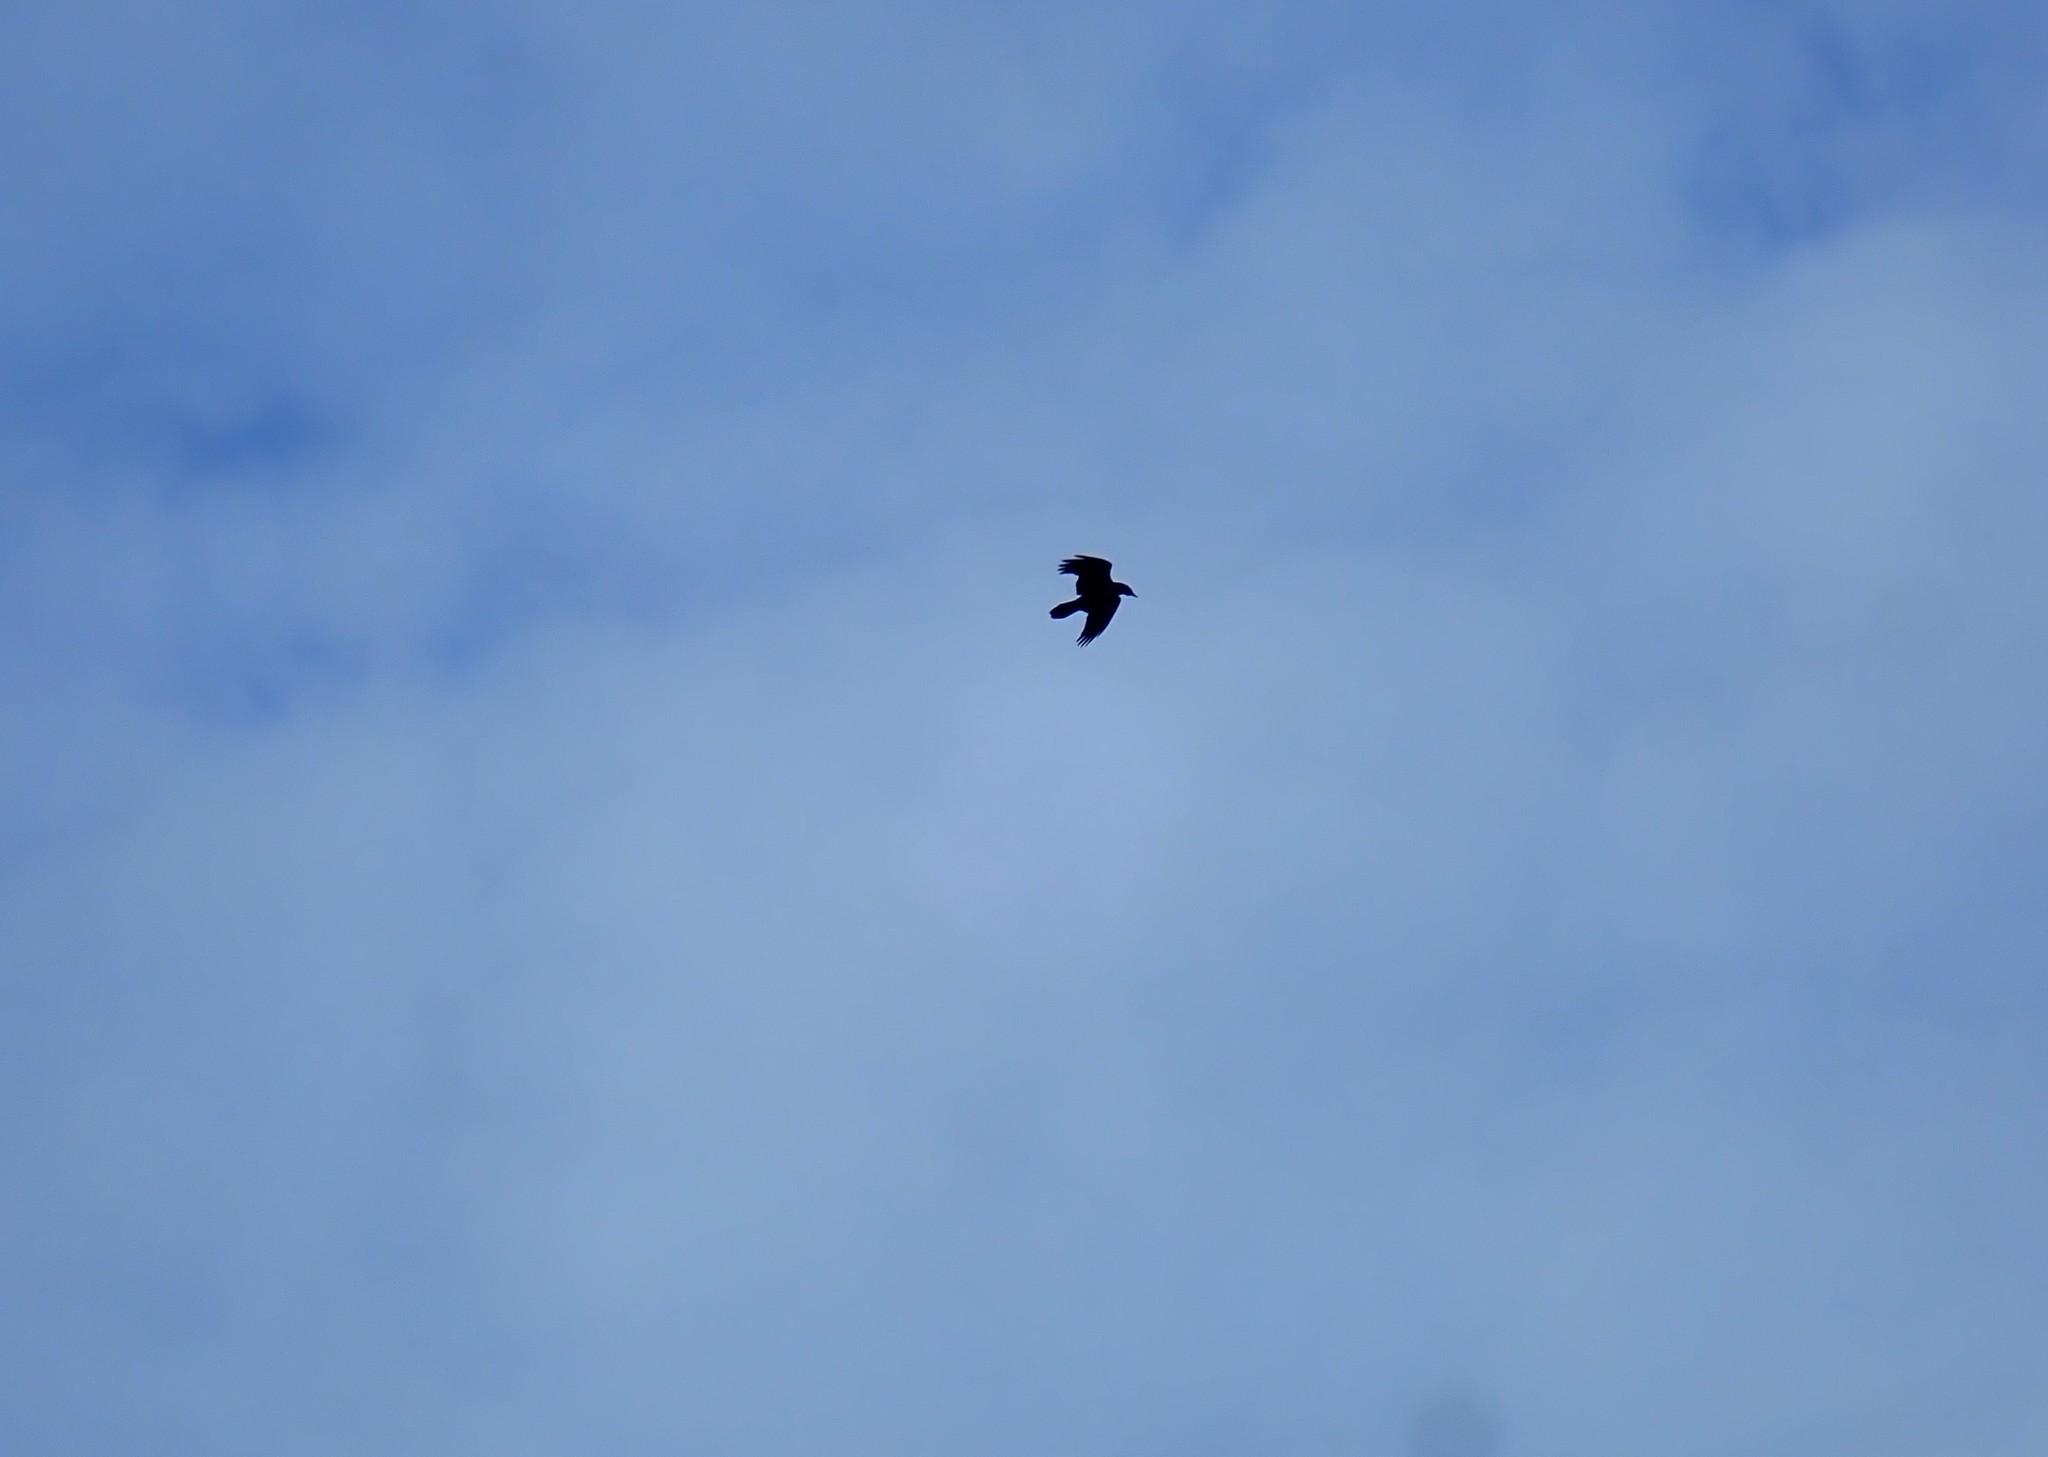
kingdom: Animalia
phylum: Chordata
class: Aves
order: Passeriformes
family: Corvidae
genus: Corvus
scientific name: Corvus corax
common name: Common raven
